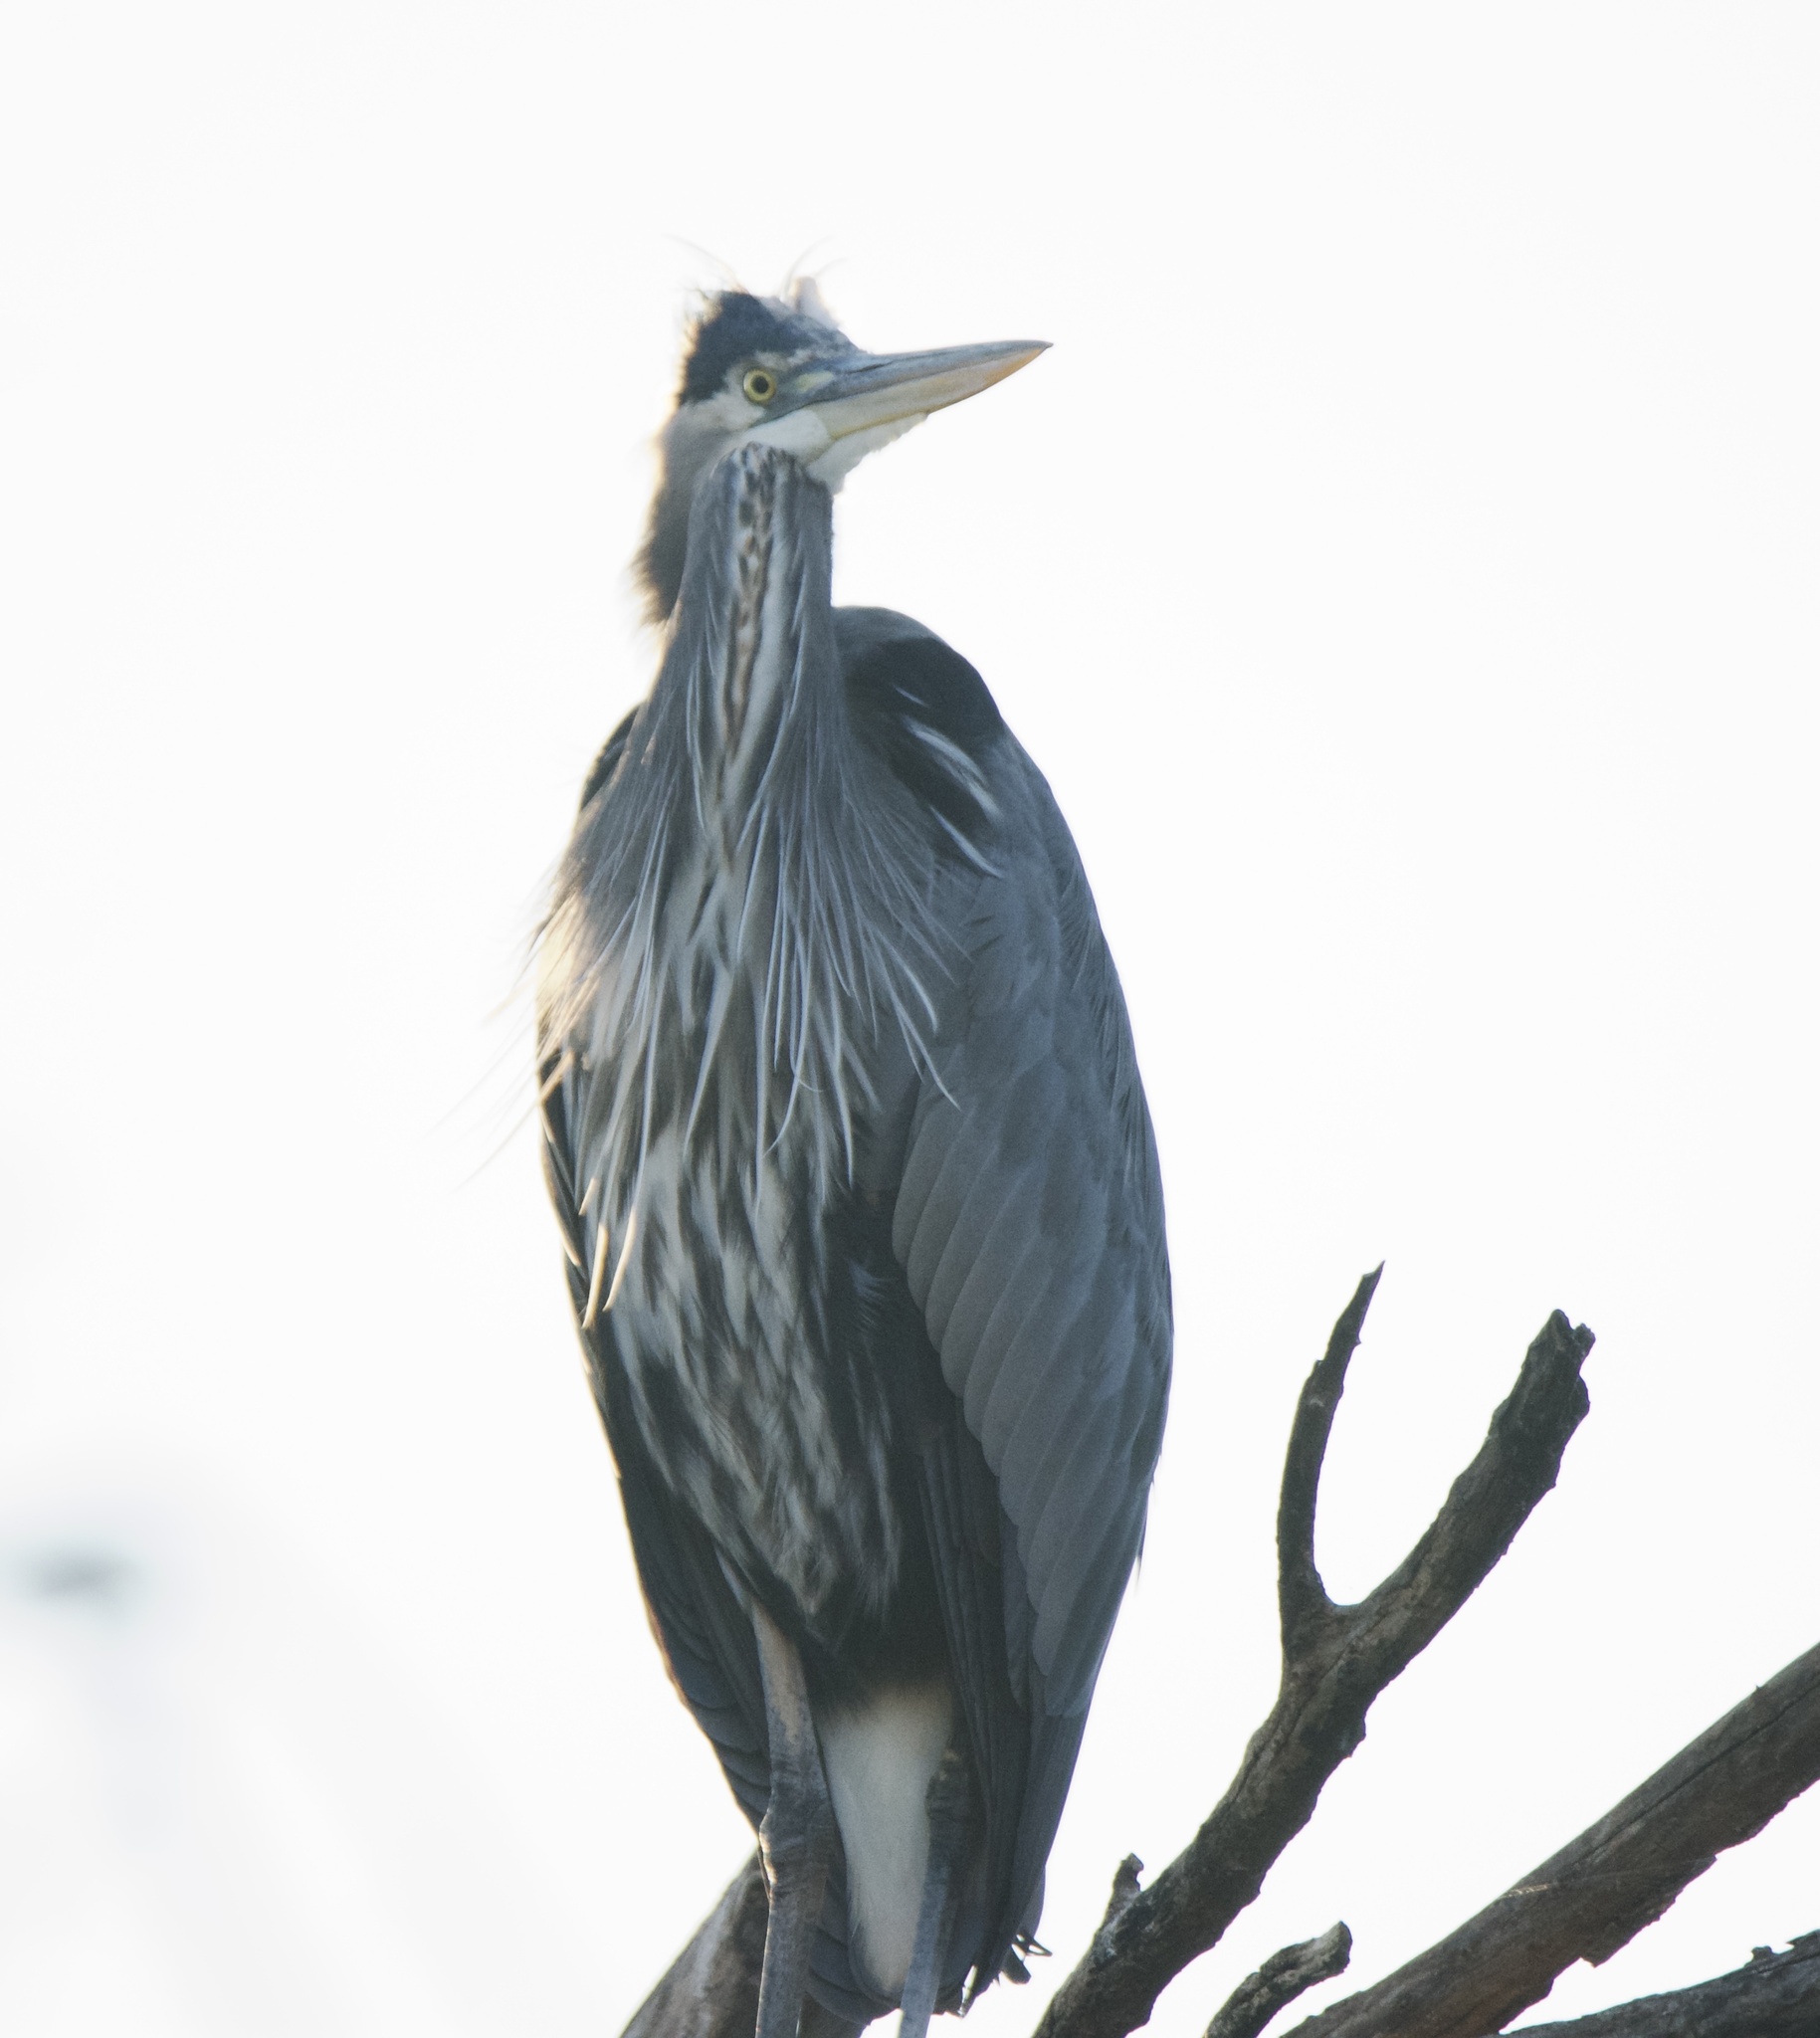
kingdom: Animalia
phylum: Chordata
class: Aves
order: Pelecaniformes
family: Ardeidae
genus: Ardea
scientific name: Ardea herodias
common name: Great blue heron
